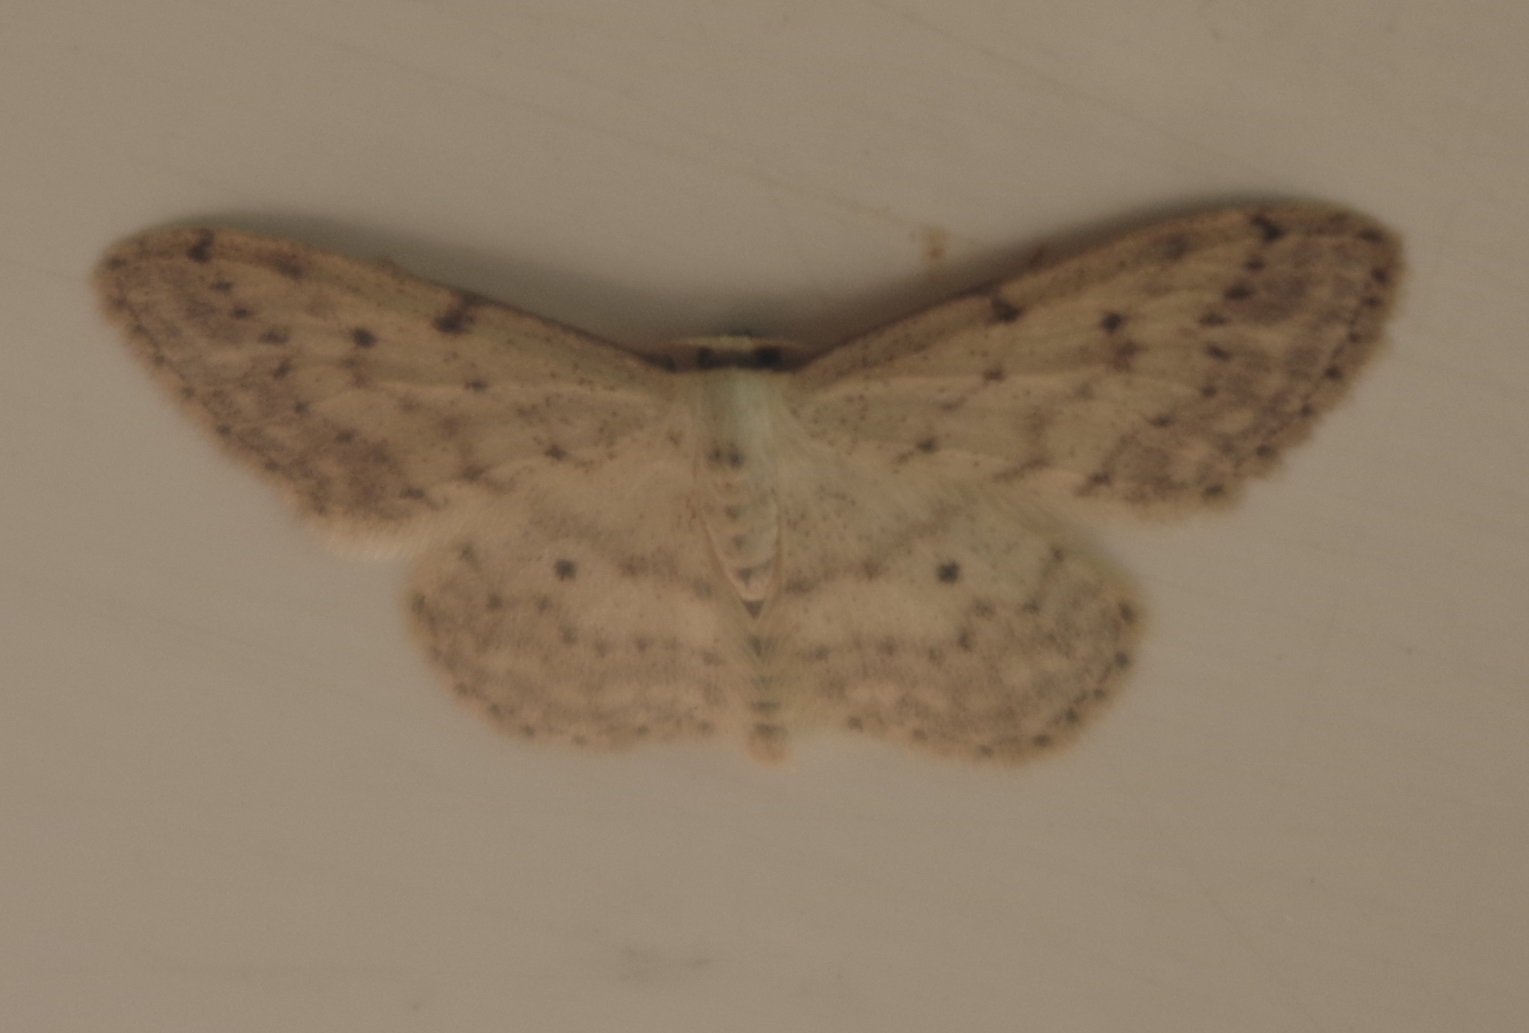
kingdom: Animalia
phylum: Arthropoda
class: Insecta
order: Lepidoptera
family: Geometridae
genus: Idaea
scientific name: Idaea seriata
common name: Small dusty wave
